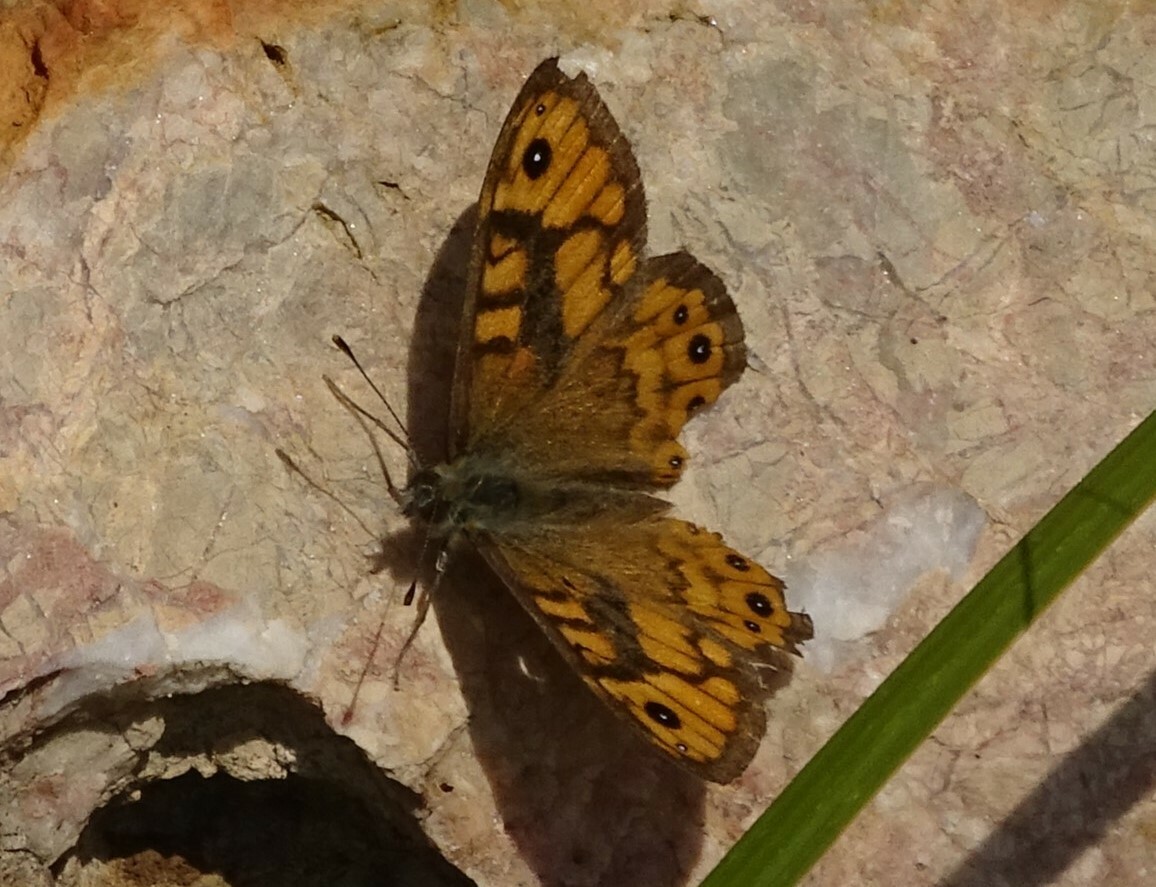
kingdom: Animalia
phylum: Arthropoda
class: Insecta
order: Lepidoptera
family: Nymphalidae
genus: Pararge
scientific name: Pararge Lasiommata megera
